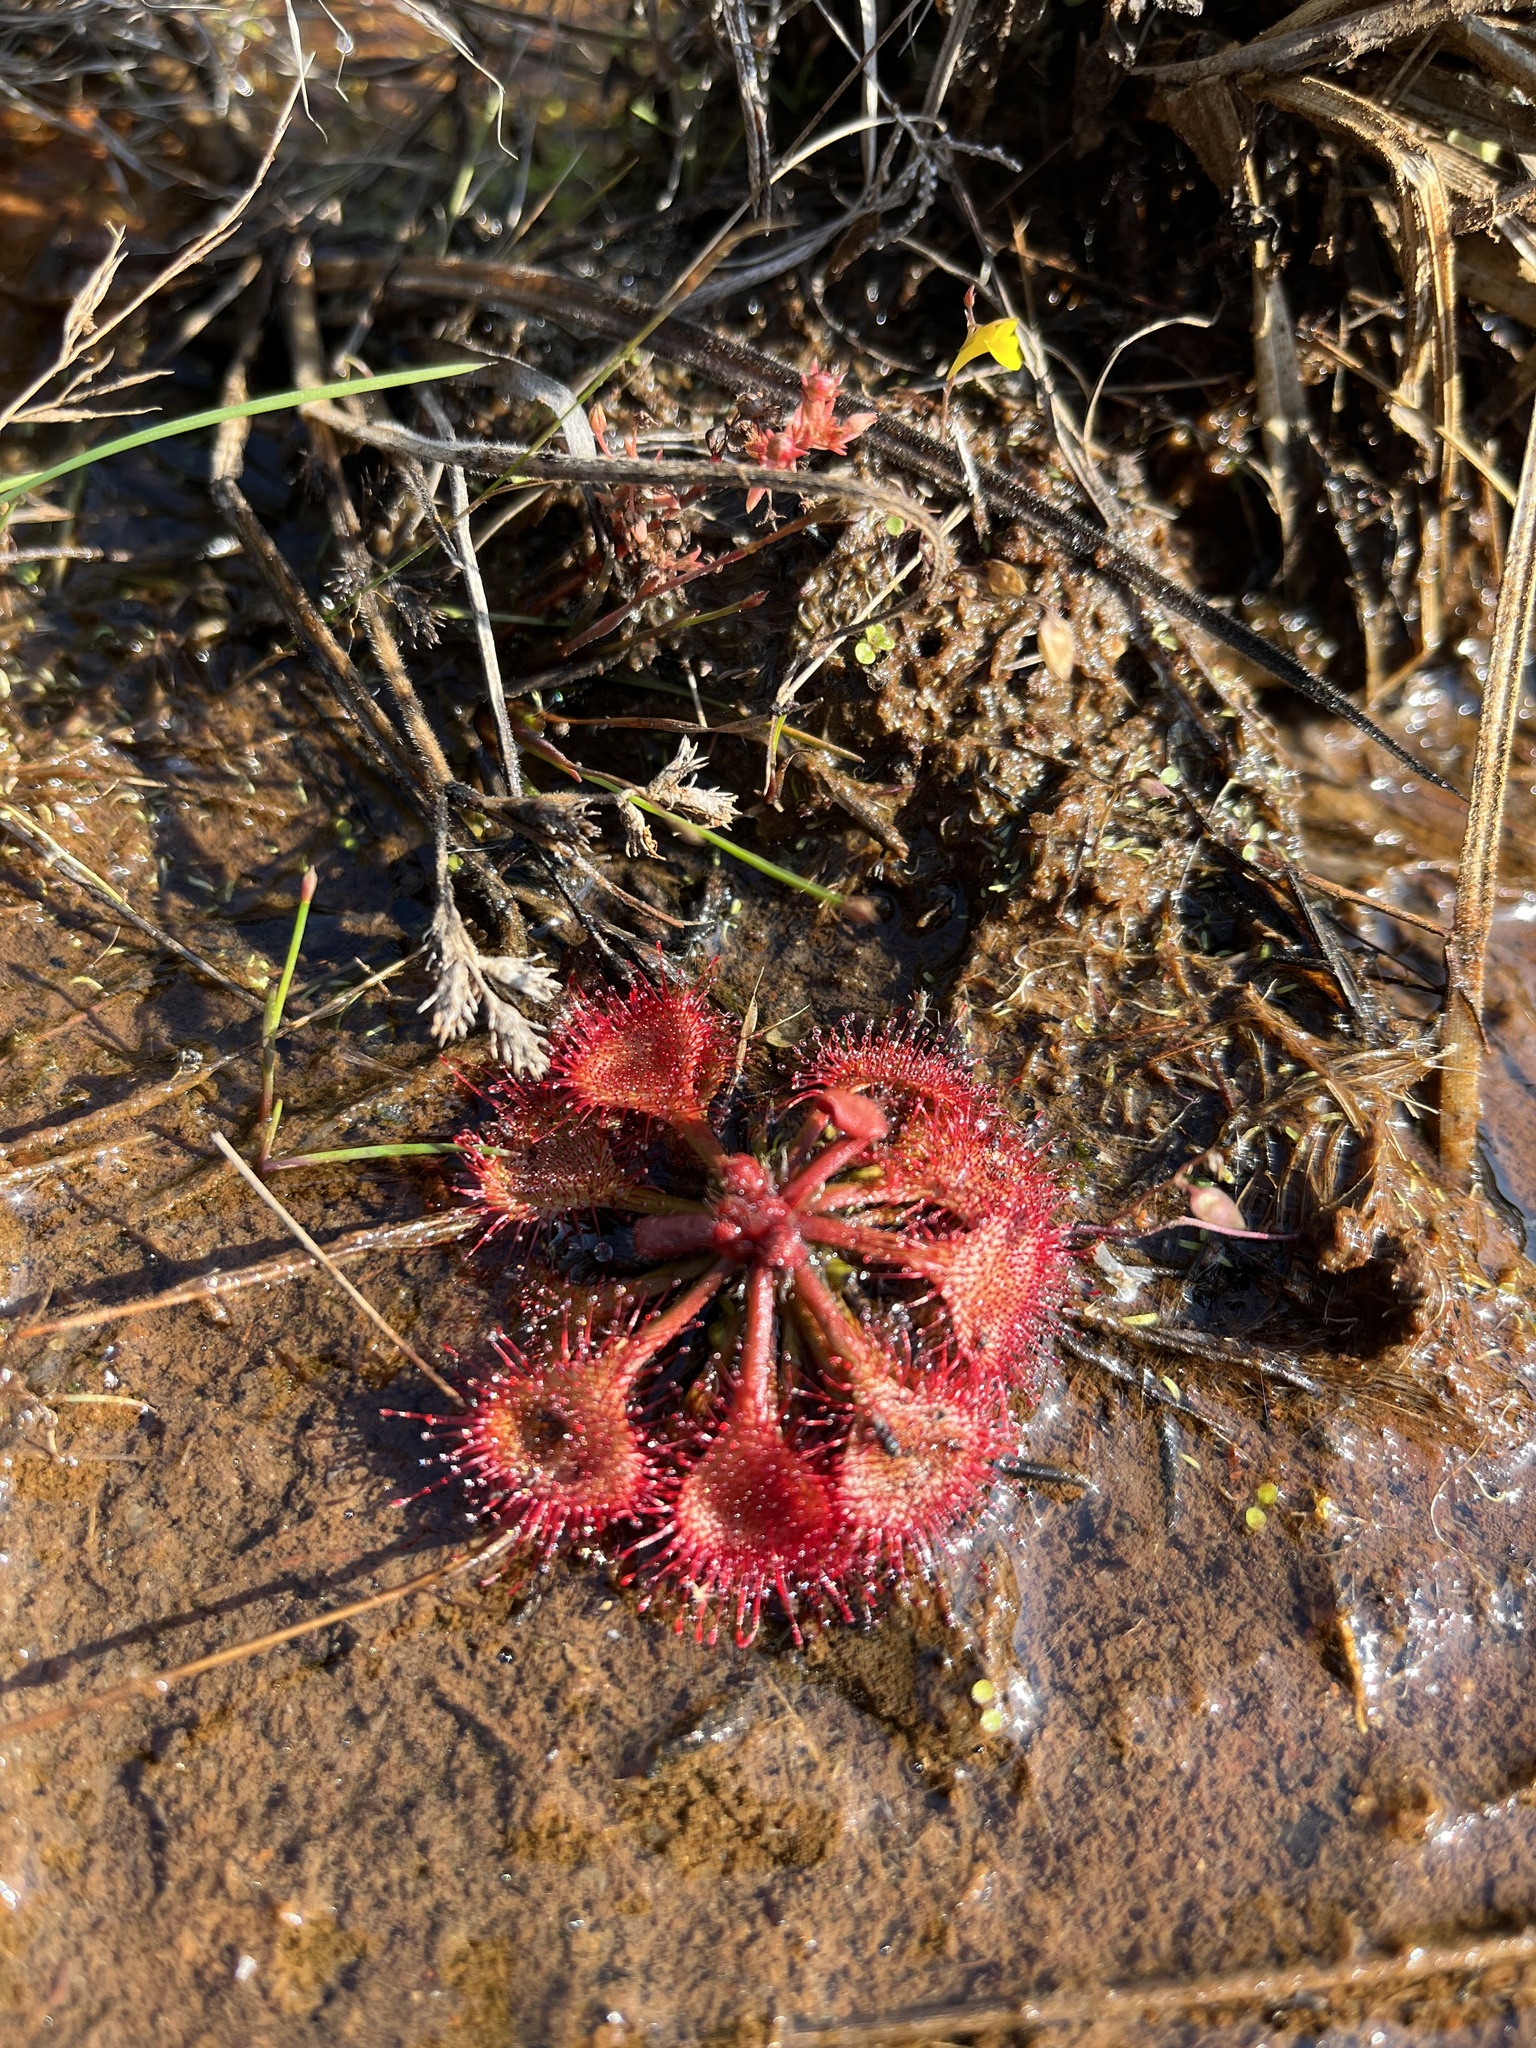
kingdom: Plantae
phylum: Tracheophyta
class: Magnoliopsida
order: Caryophyllales
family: Droseraceae
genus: Drosera
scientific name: Drosera burkeana
